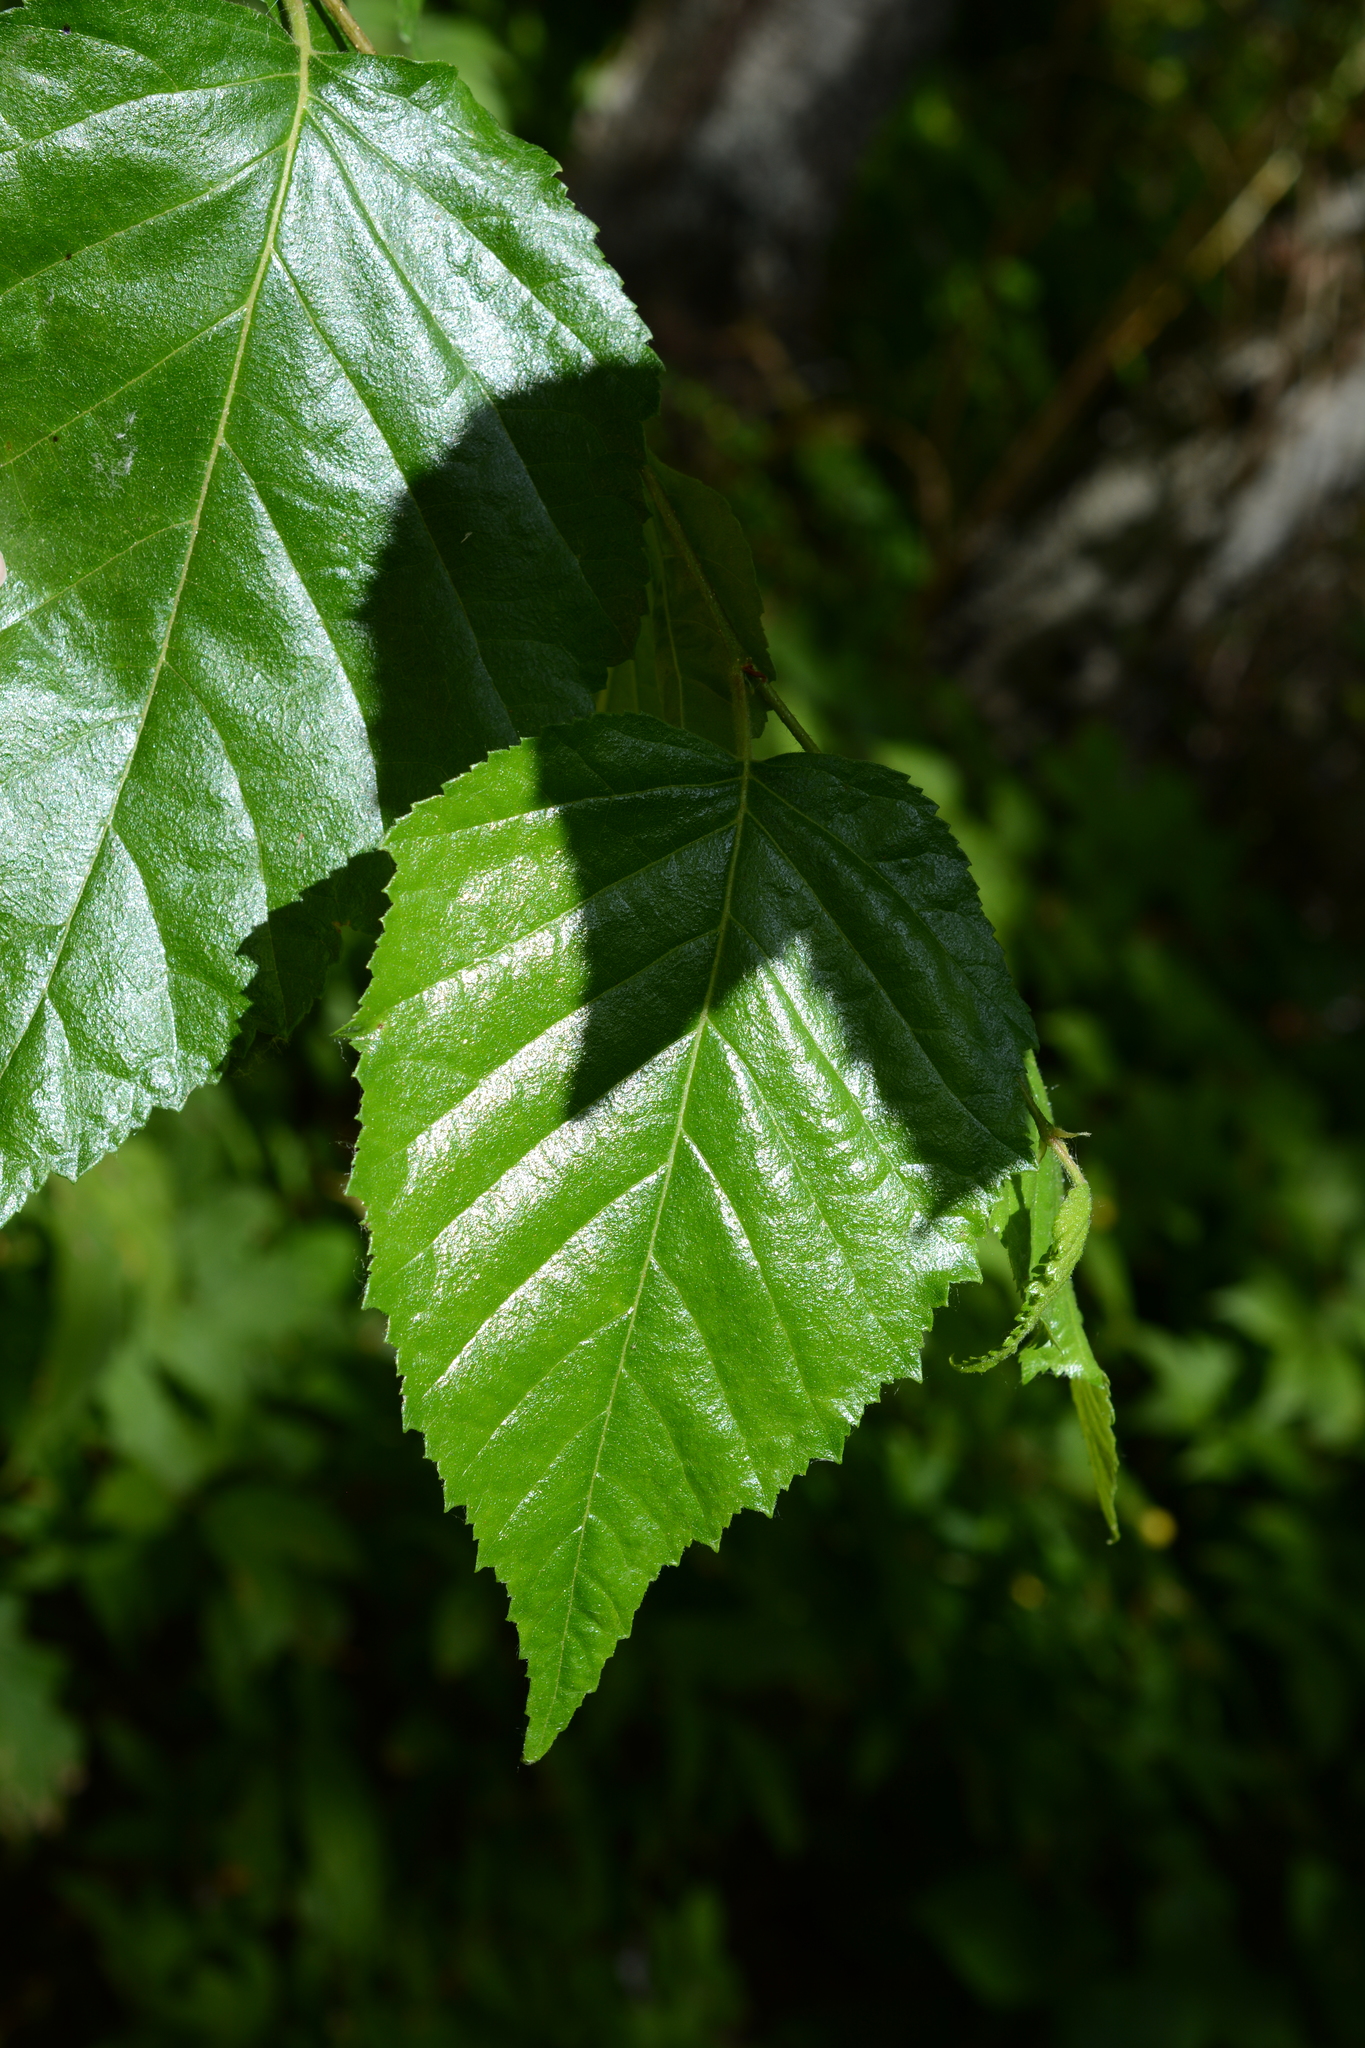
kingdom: Plantae
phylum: Tracheophyta
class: Magnoliopsida
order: Fagales
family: Betulaceae
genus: Betula
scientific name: Betula papyrifera
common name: Paper birch
